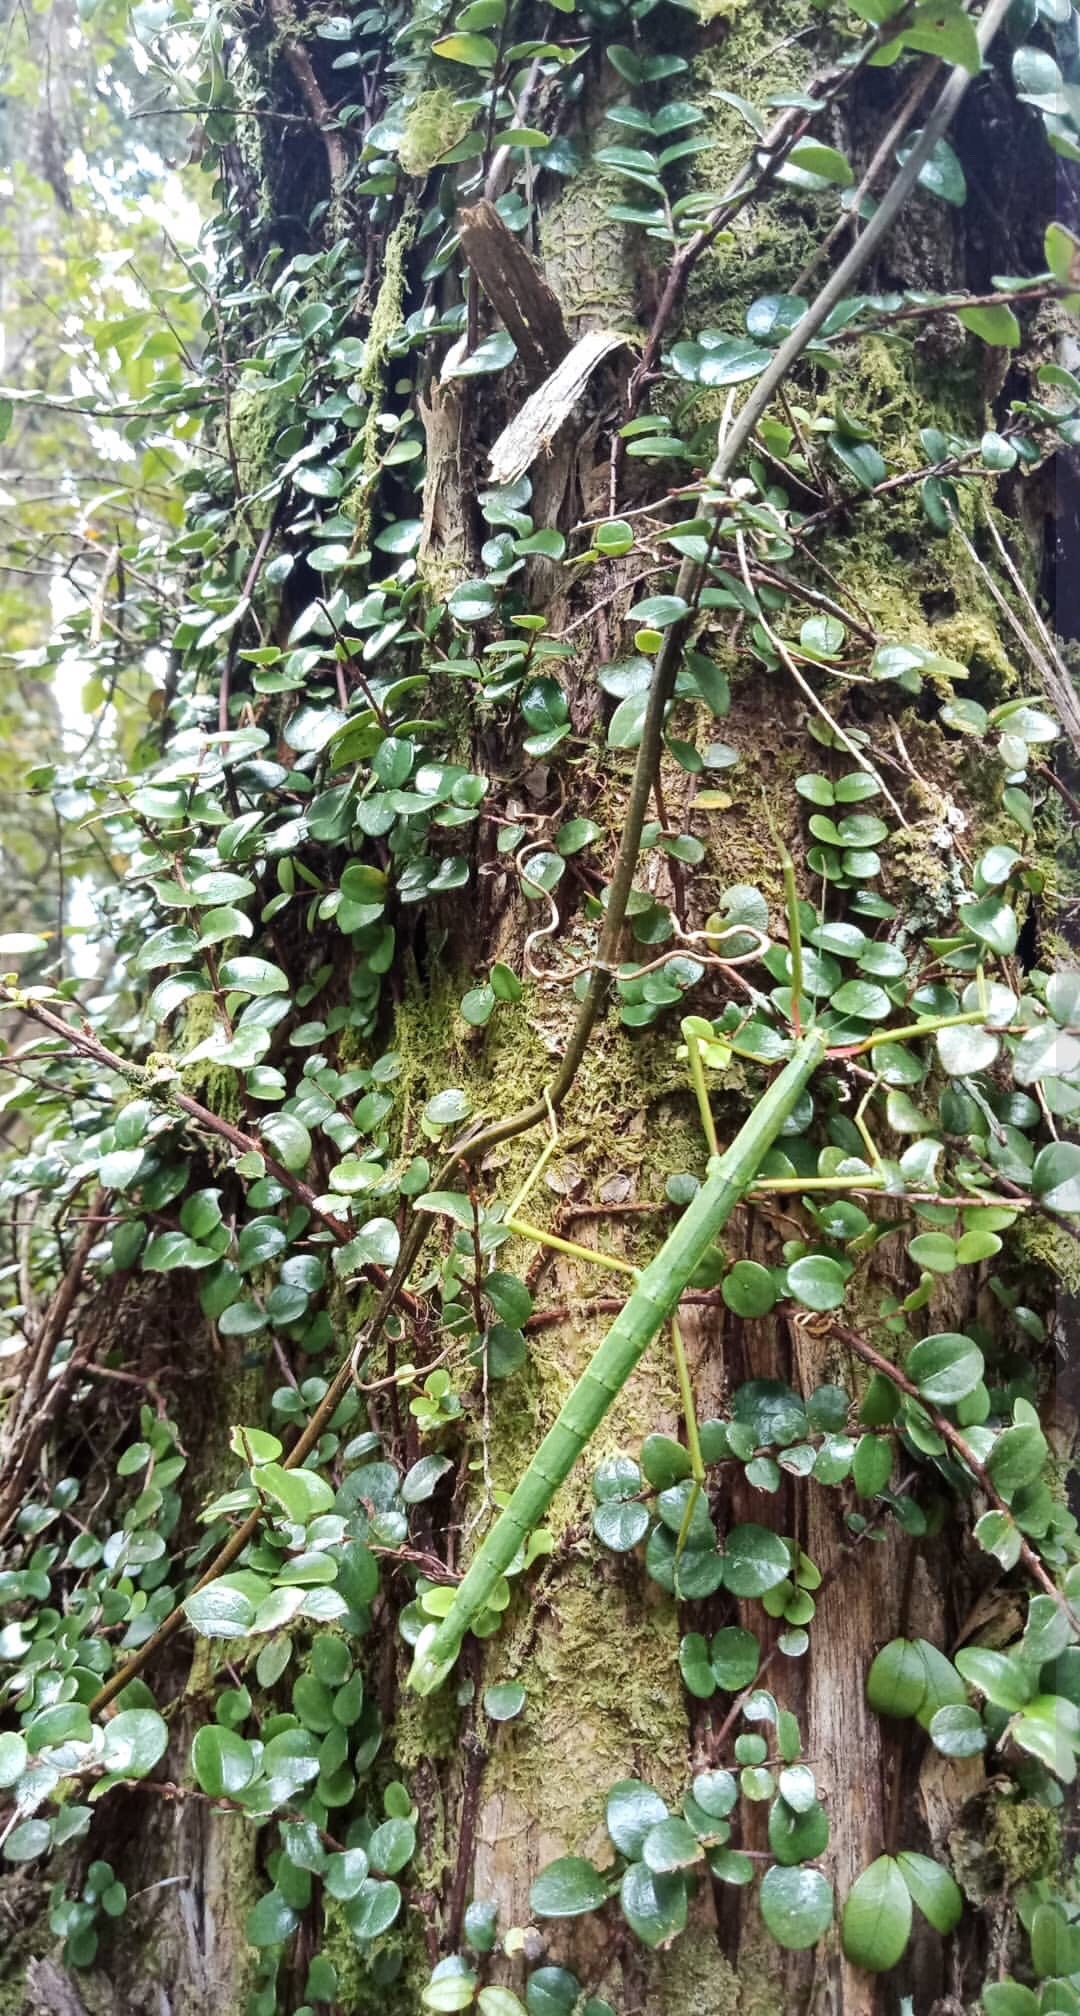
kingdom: Animalia
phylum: Arthropoda
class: Insecta
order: Phasmida
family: Phasmatidae
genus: Clitarchus
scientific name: Clitarchus hookeri
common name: Smooth stick insect
